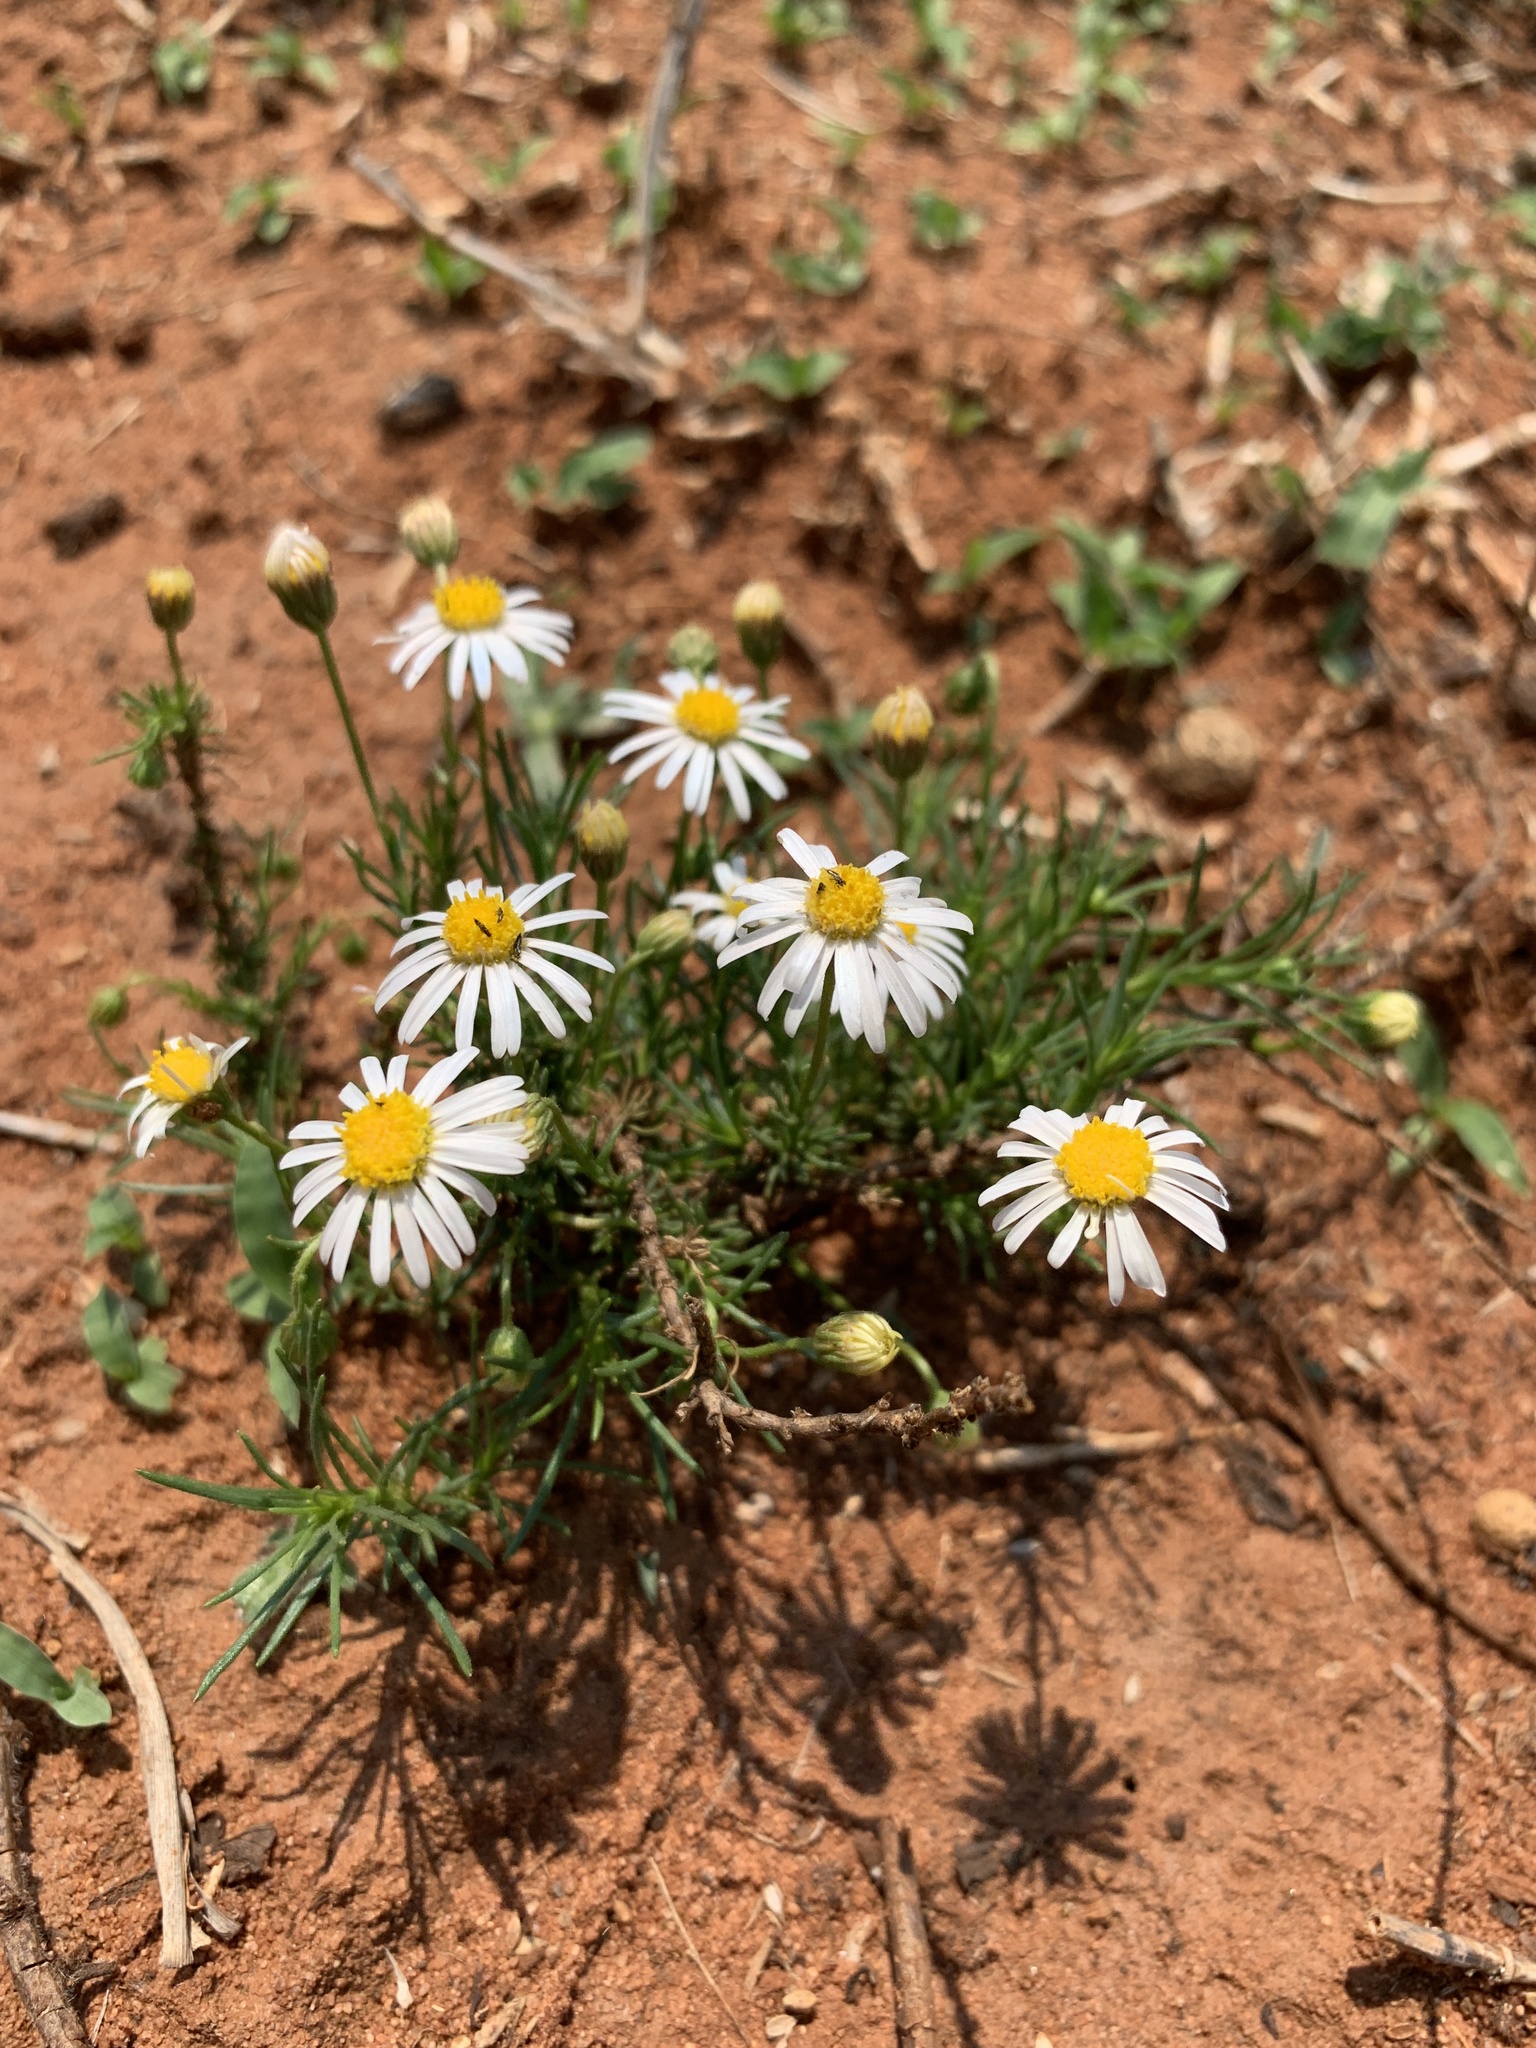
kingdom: Plantae
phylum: Tracheophyta
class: Magnoliopsida
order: Asterales
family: Asteraceae
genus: Felicia
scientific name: Felicia muricata
